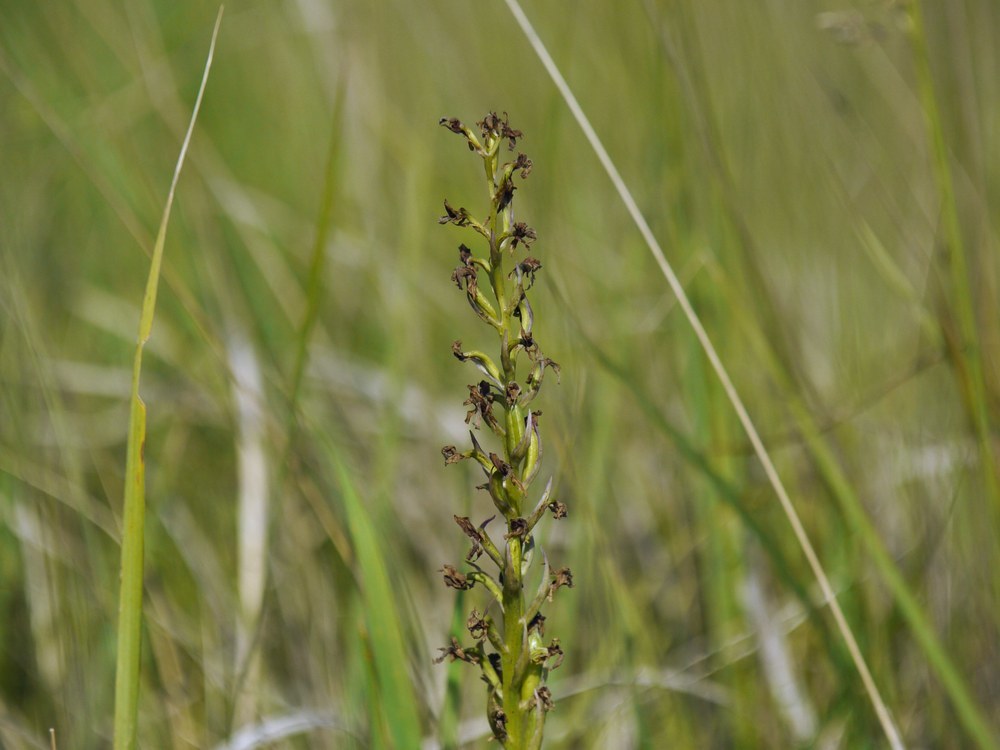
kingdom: Plantae
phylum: Tracheophyta
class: Liliopsida
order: Asparagales
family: Orchidaceae
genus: Anacamptis
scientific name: Anacamptis palustris
